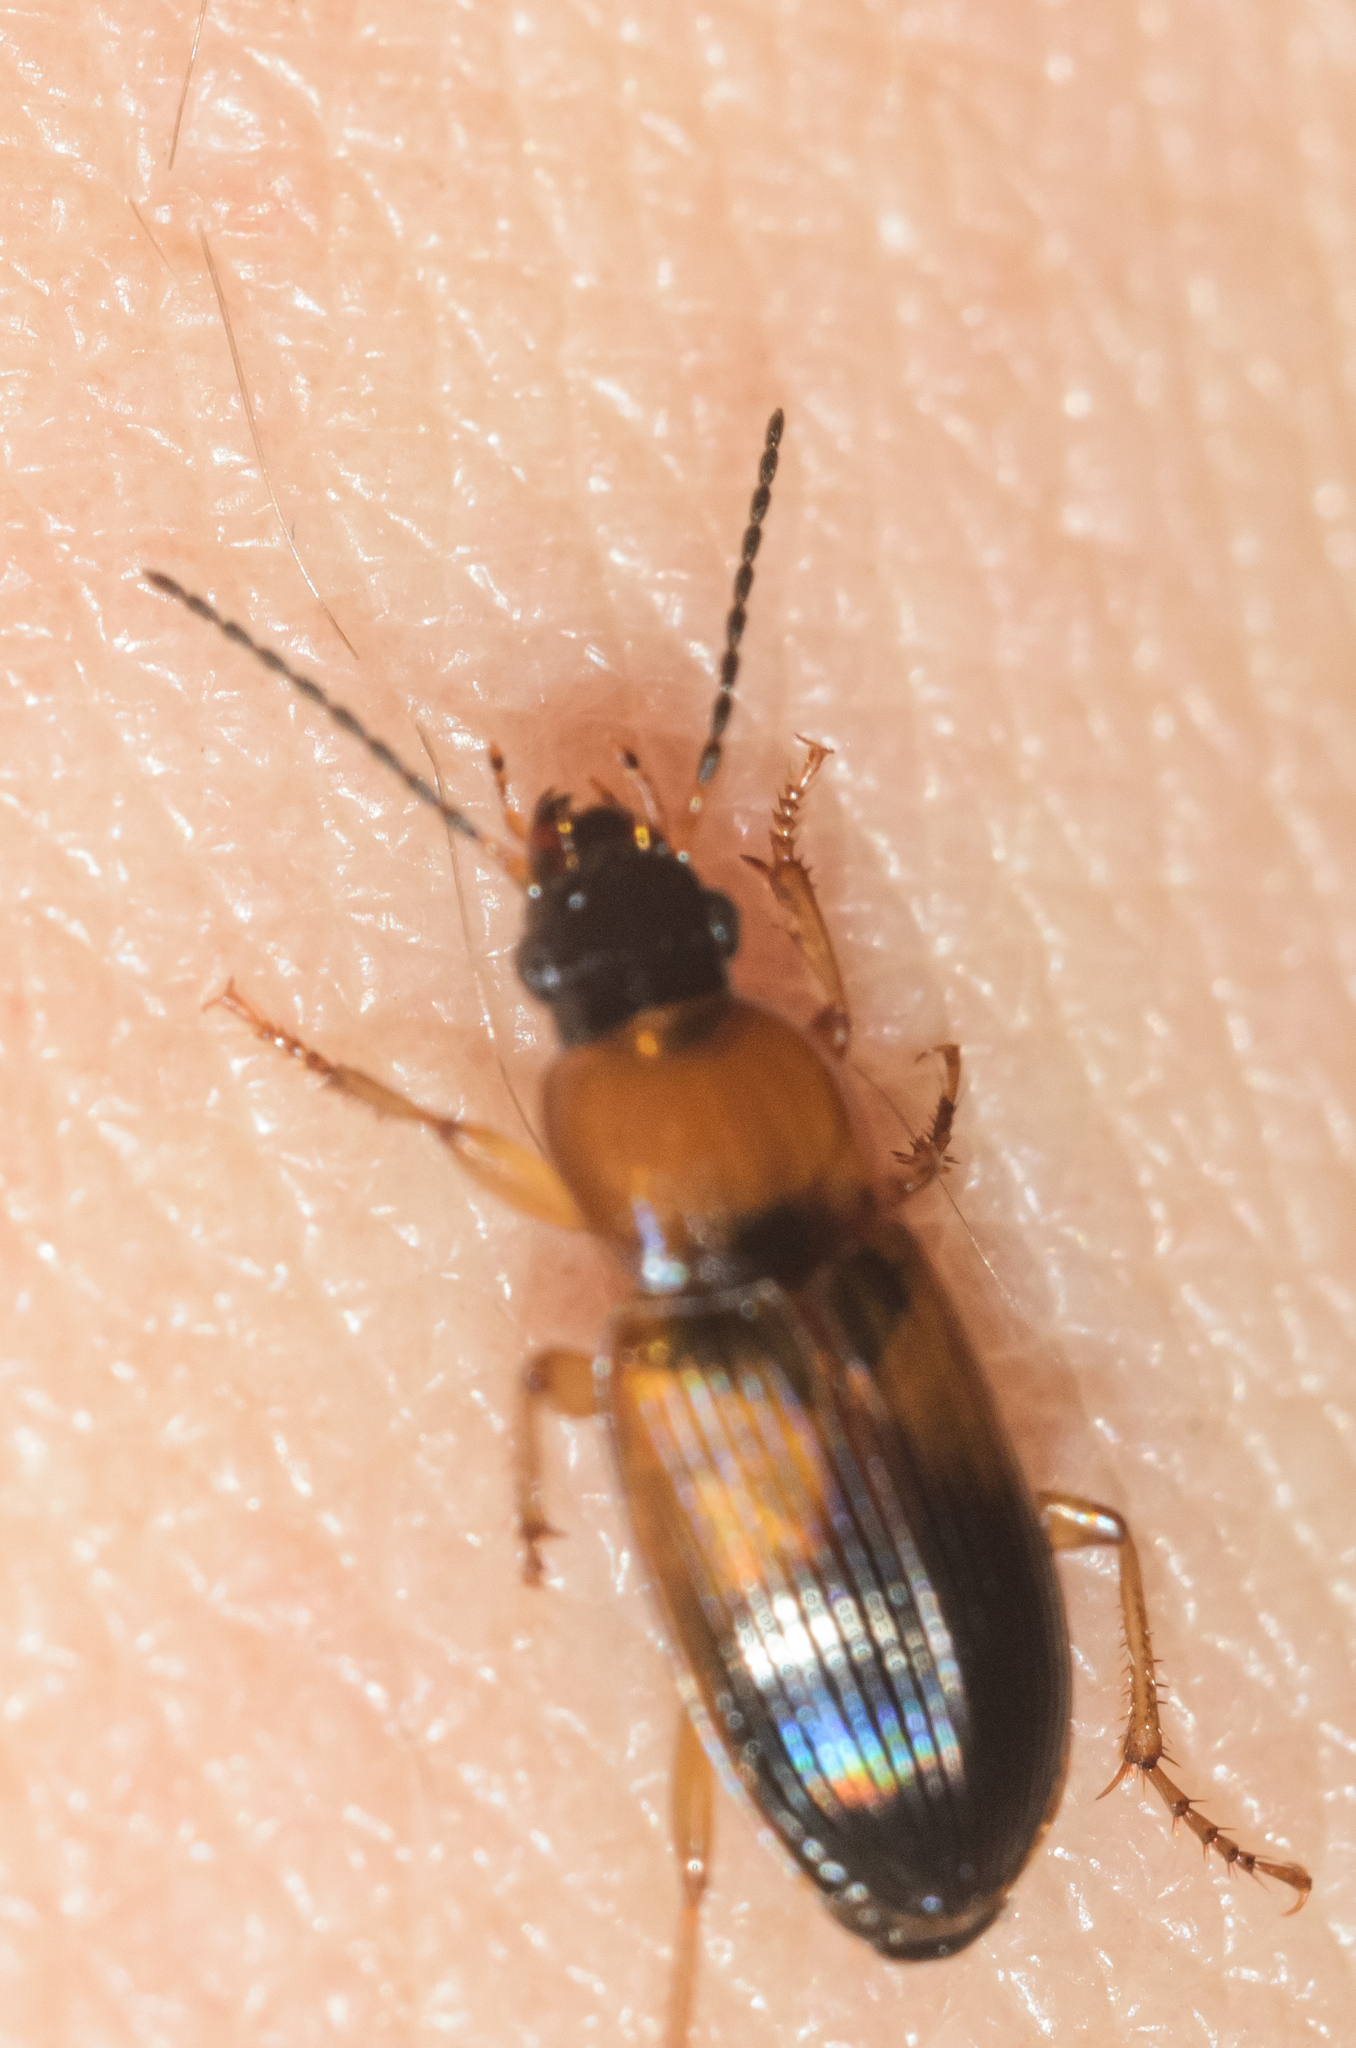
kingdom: Animalia
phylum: Arthropoda
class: Insecta
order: Coleoptera
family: Carabidae
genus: Stenolophus
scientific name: Stenolophus teutonus
